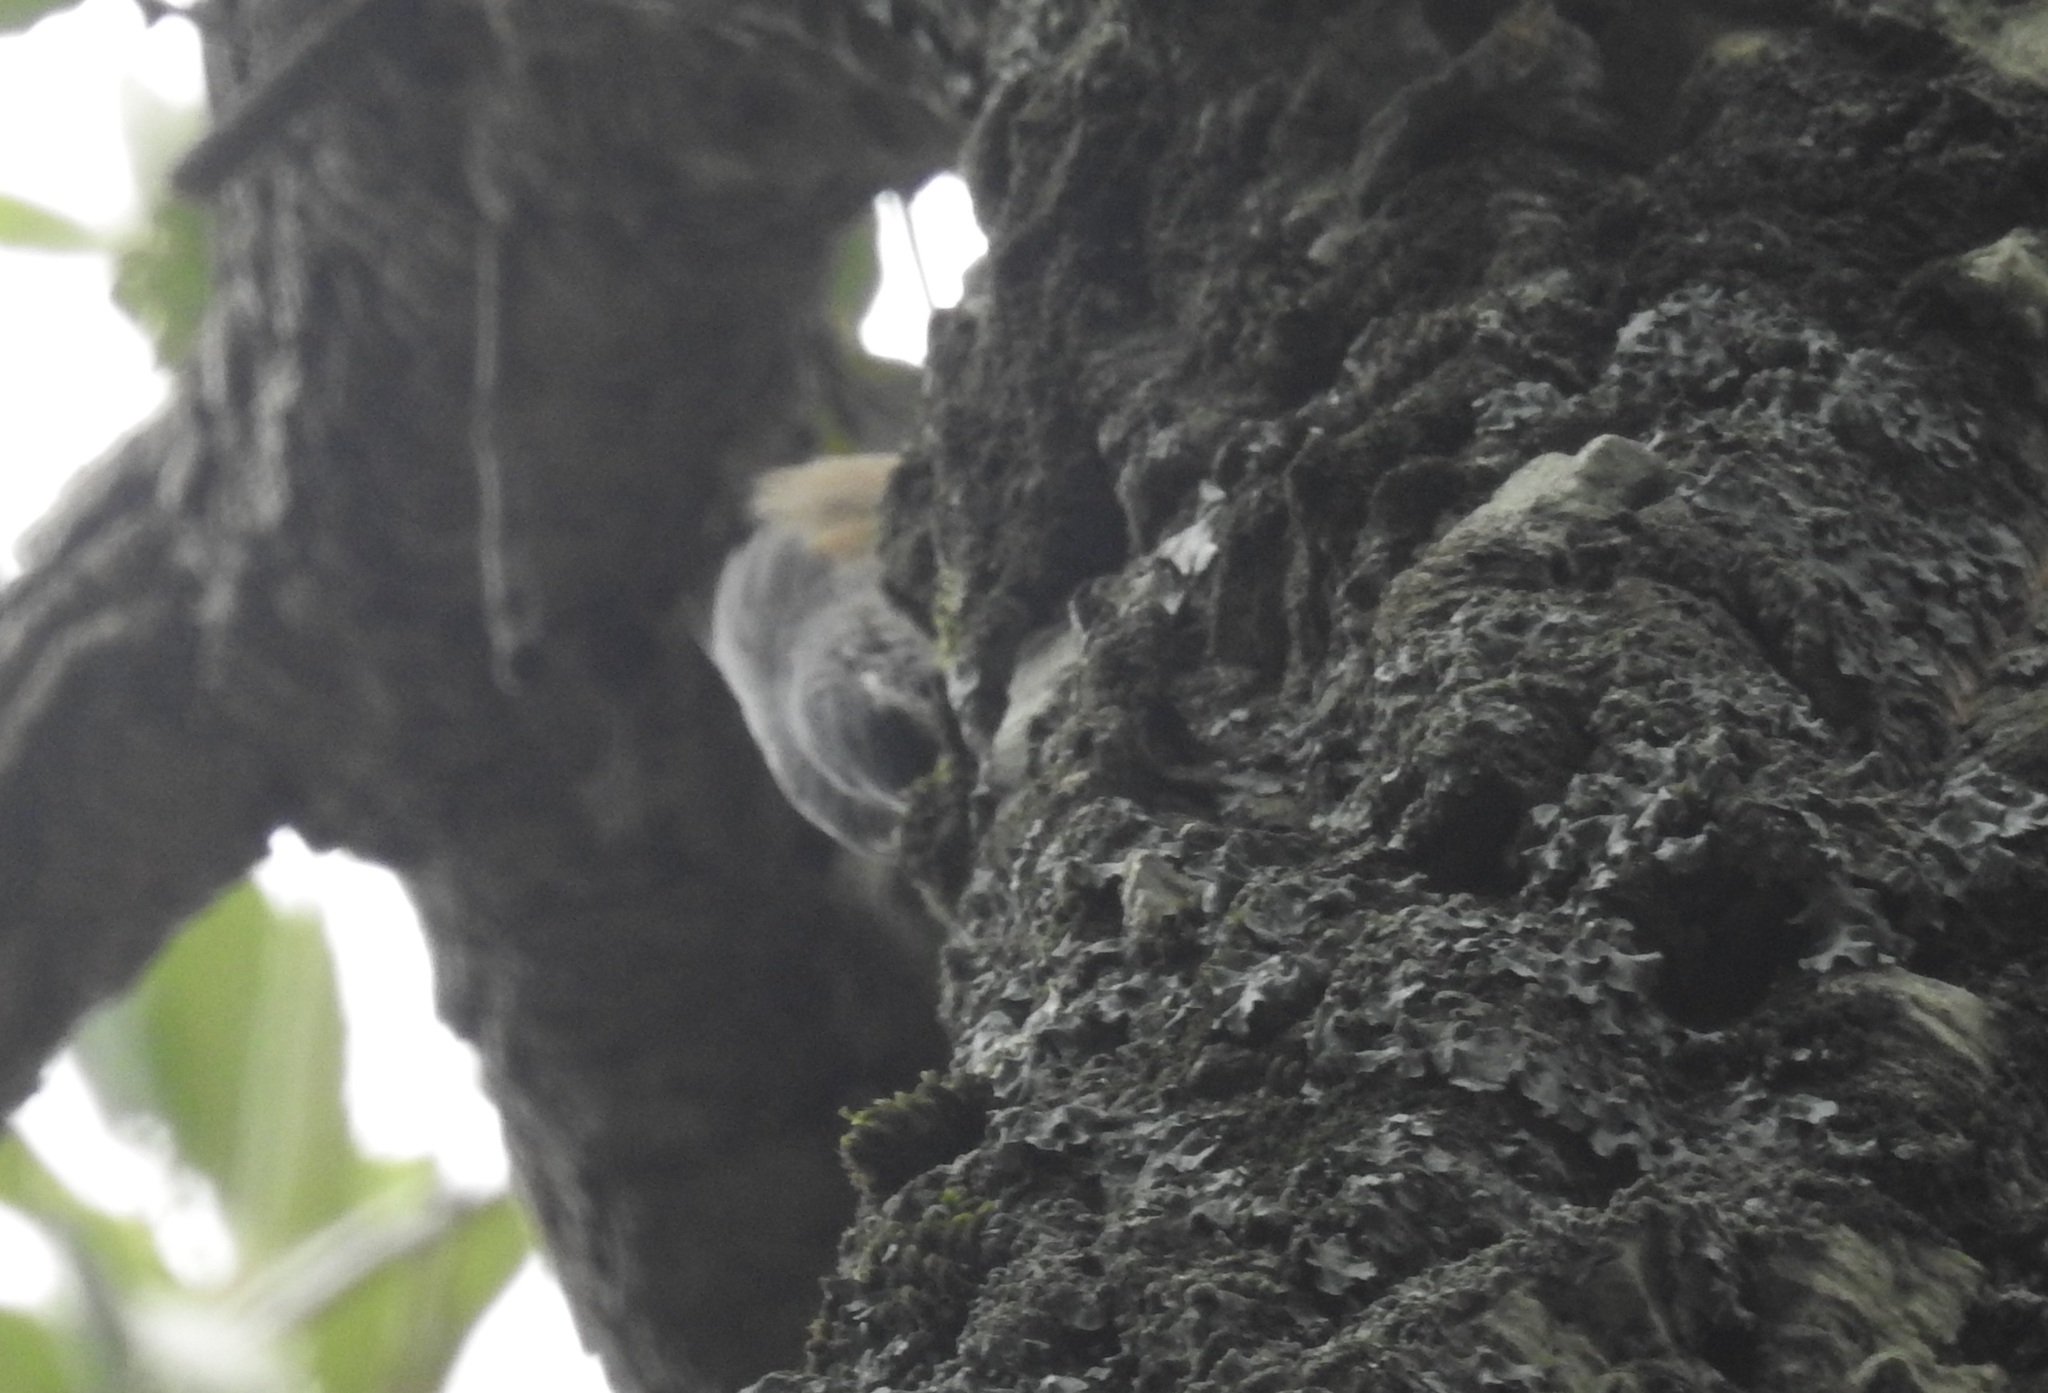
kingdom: Animalia
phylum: Chordata
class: Aves
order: Passeriformes
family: Sittidae
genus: Sitta
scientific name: Sitta ledanti
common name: Algerian nuthatch
